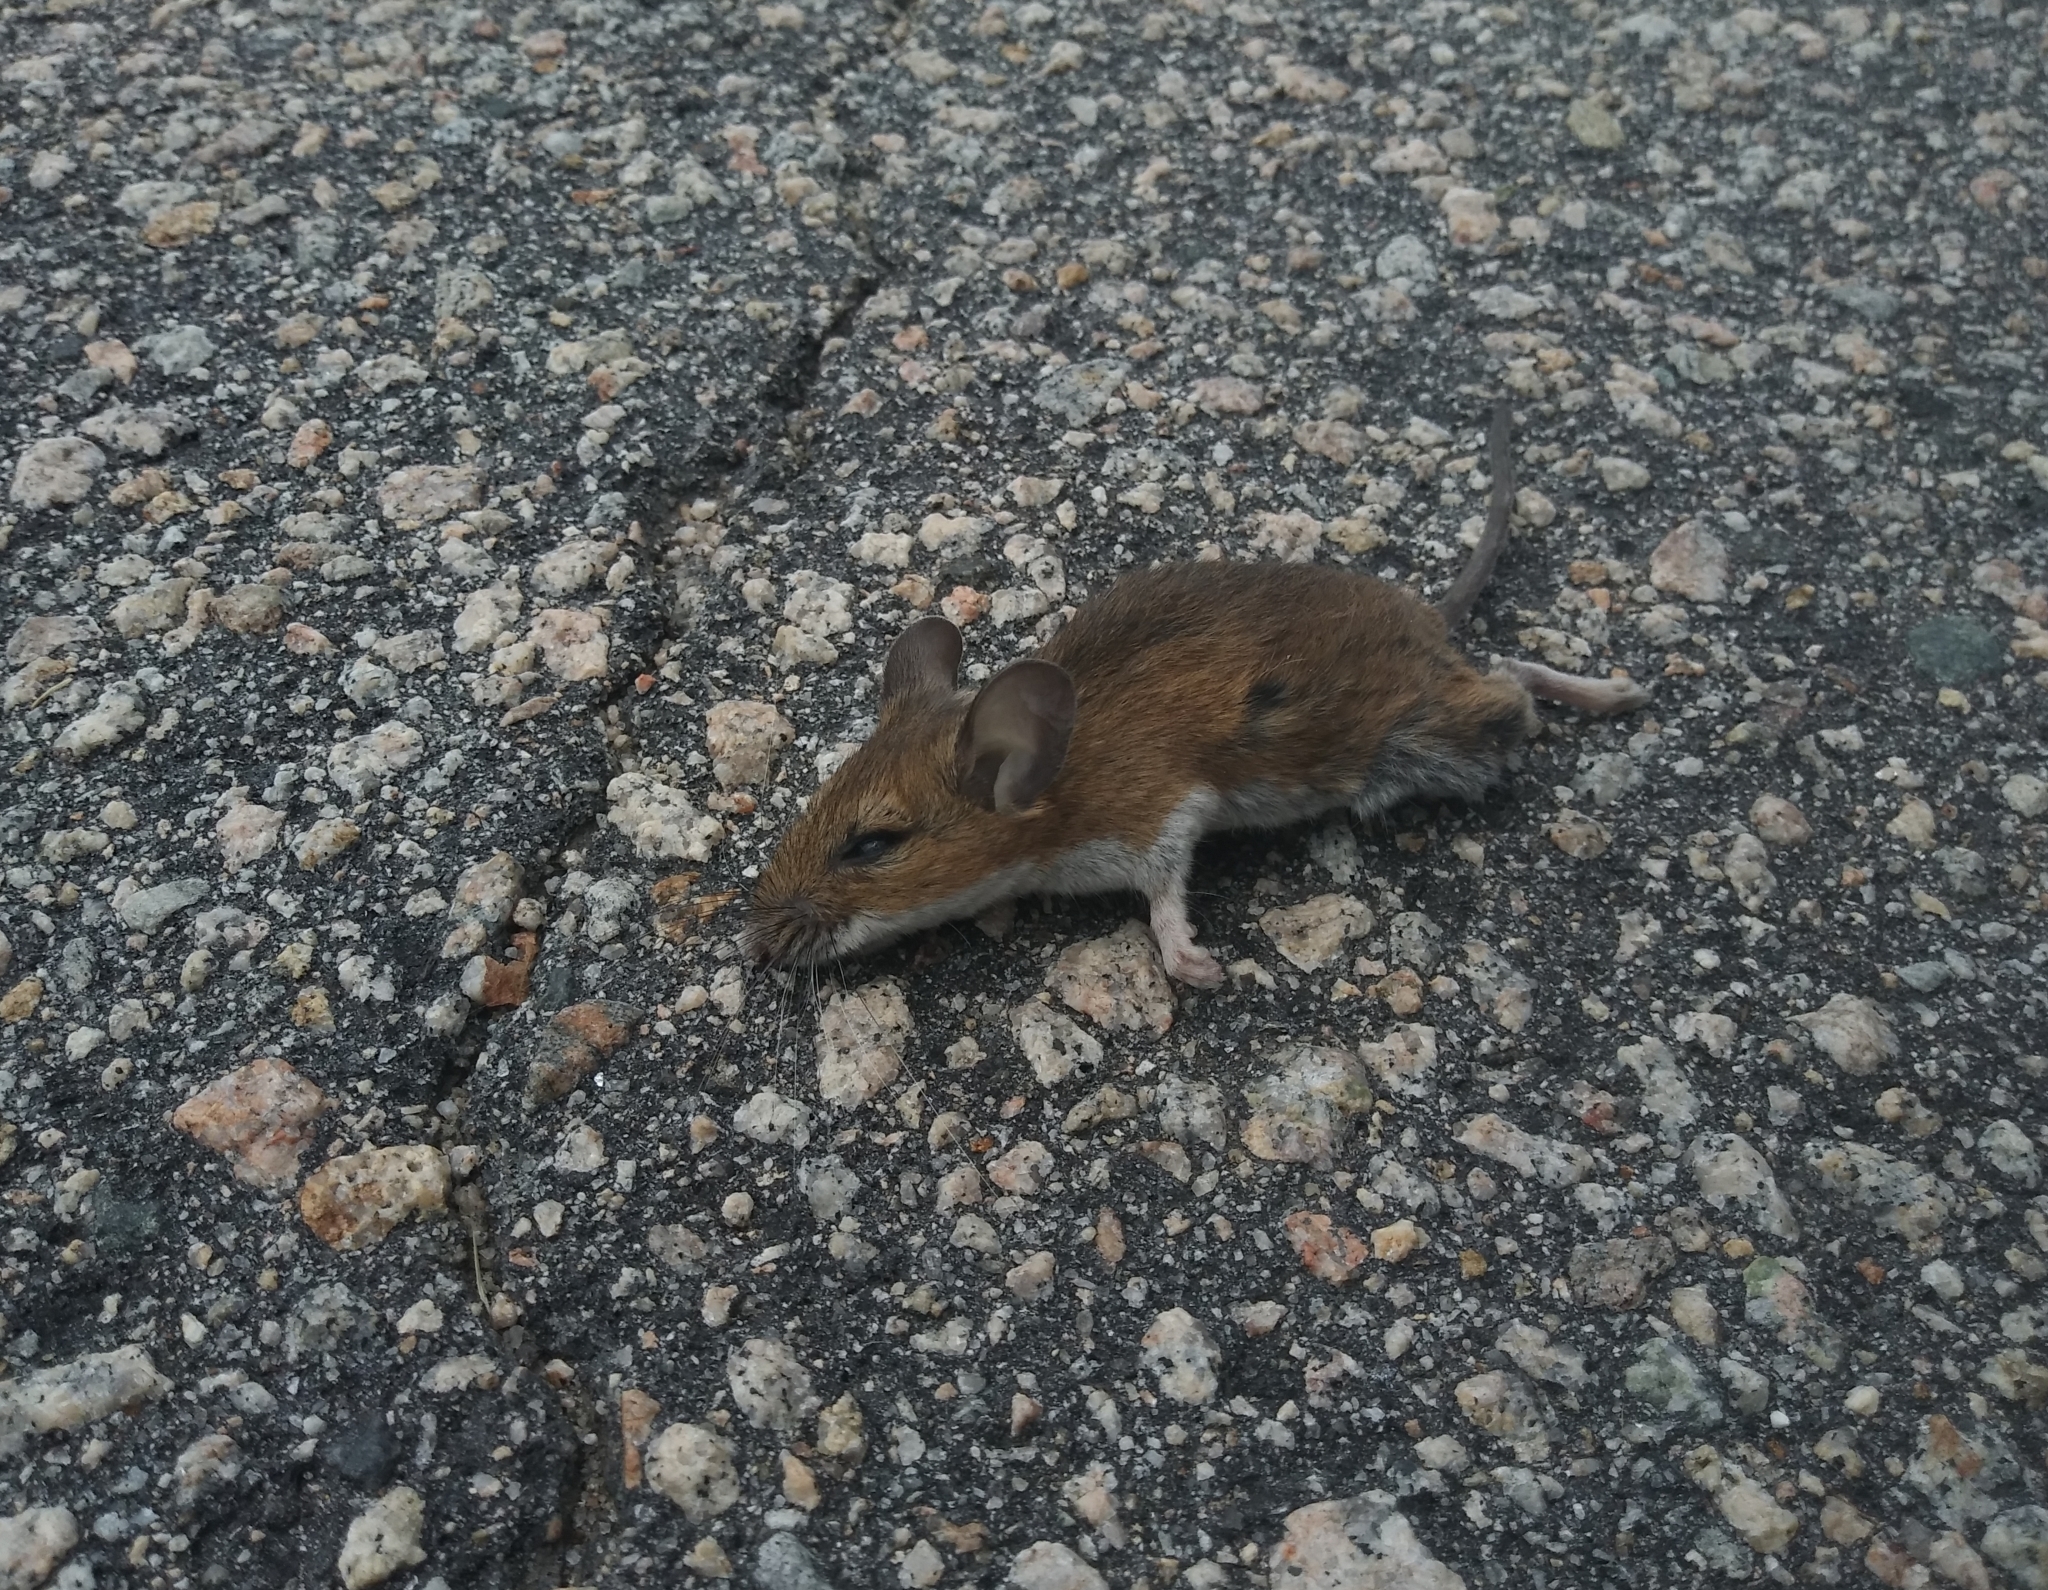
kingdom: Animalia
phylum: Chordata
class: Mammalia
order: Rodentia
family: Cricetidae
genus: Peromyscus
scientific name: Peromyscus leucopus
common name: White-footed deermouse
